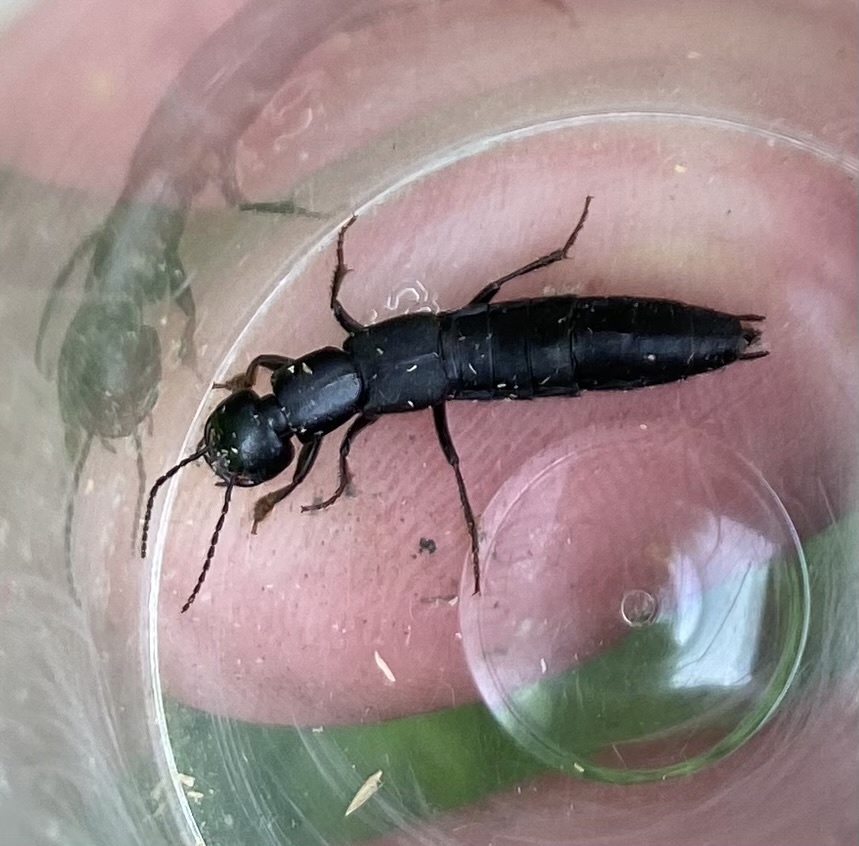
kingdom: Animalia
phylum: Arthropoda
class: Insecta
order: Coleoptera
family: Staphylinidae
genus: Tasgius
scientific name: Tasgius melanarius
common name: Rove beetle
